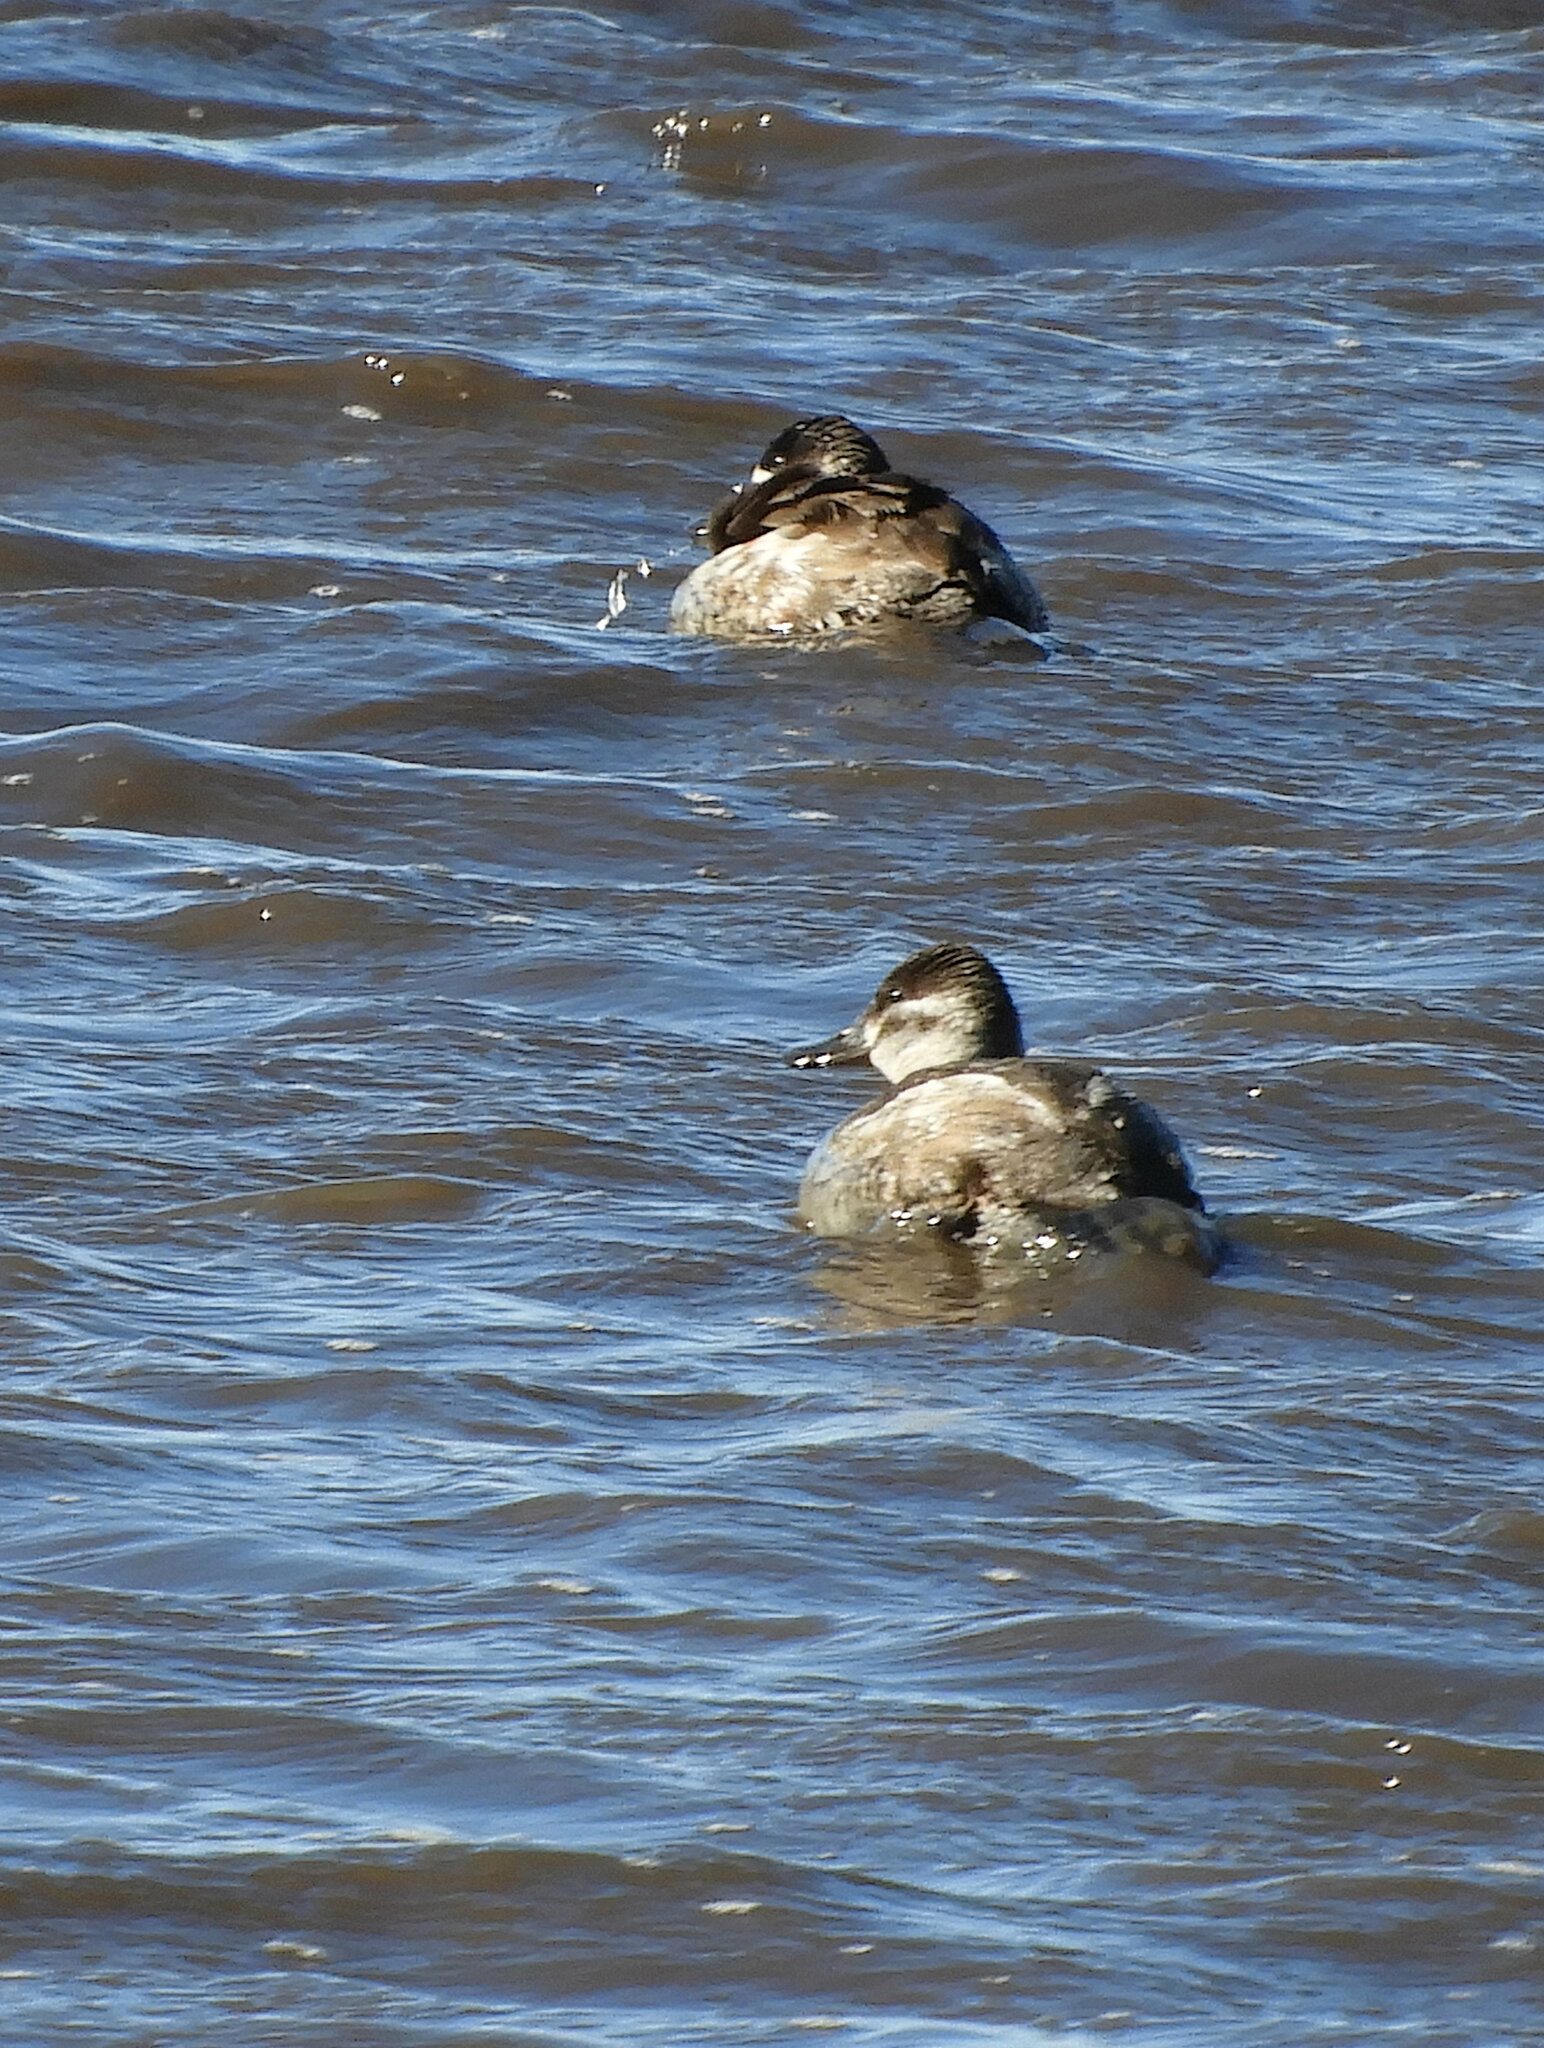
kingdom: Animalia
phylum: Chordata
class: Aves
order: Anseriformes
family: Anatidae
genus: Oxyura
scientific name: Oxyura jamaicensis
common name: Ruddy duck
